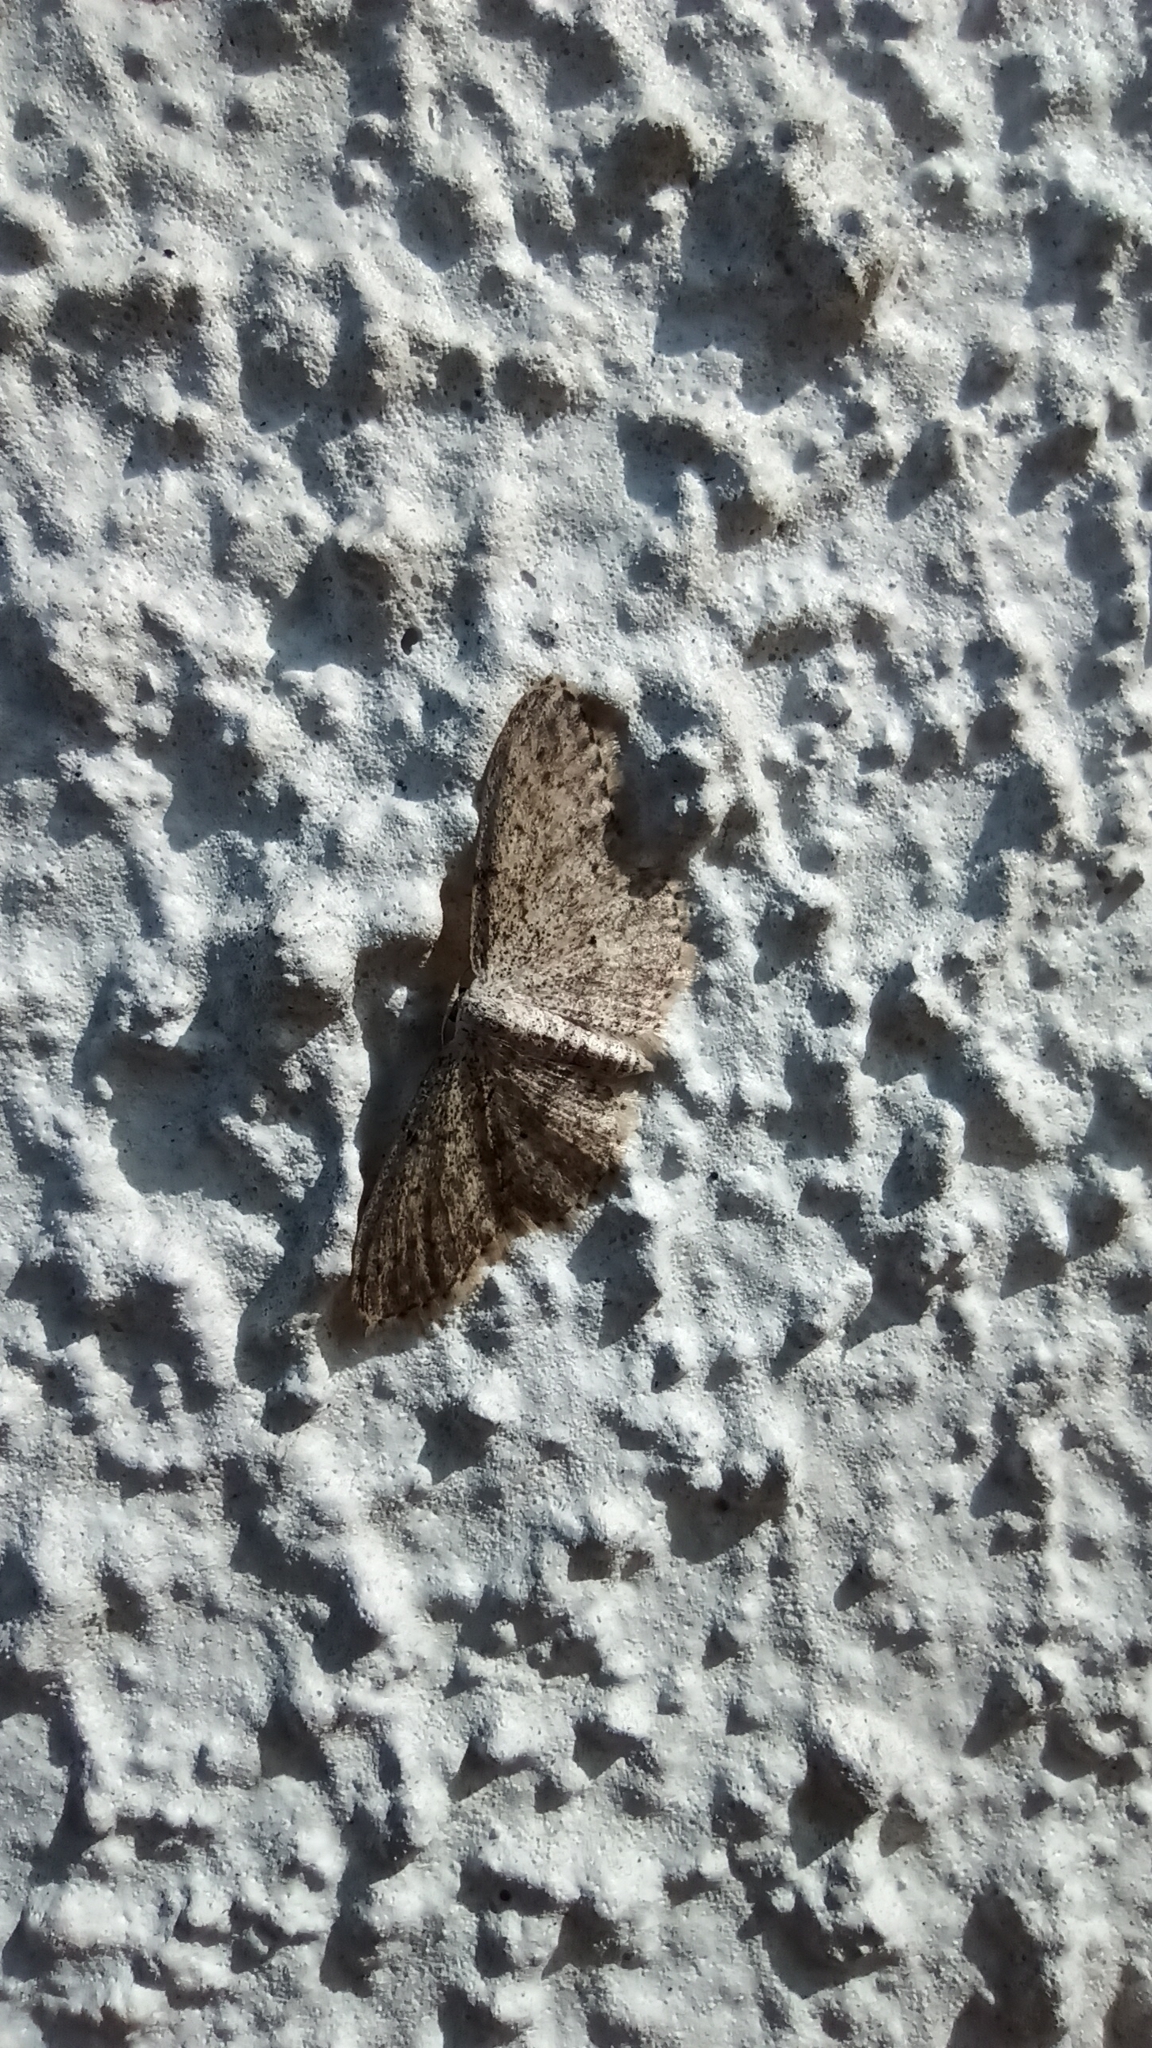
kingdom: Animalia
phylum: Arthropoda
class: Insecta
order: Lepidoptera
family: Geometridae
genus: Idaea
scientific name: Idaea seriata
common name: Small dusty wave
